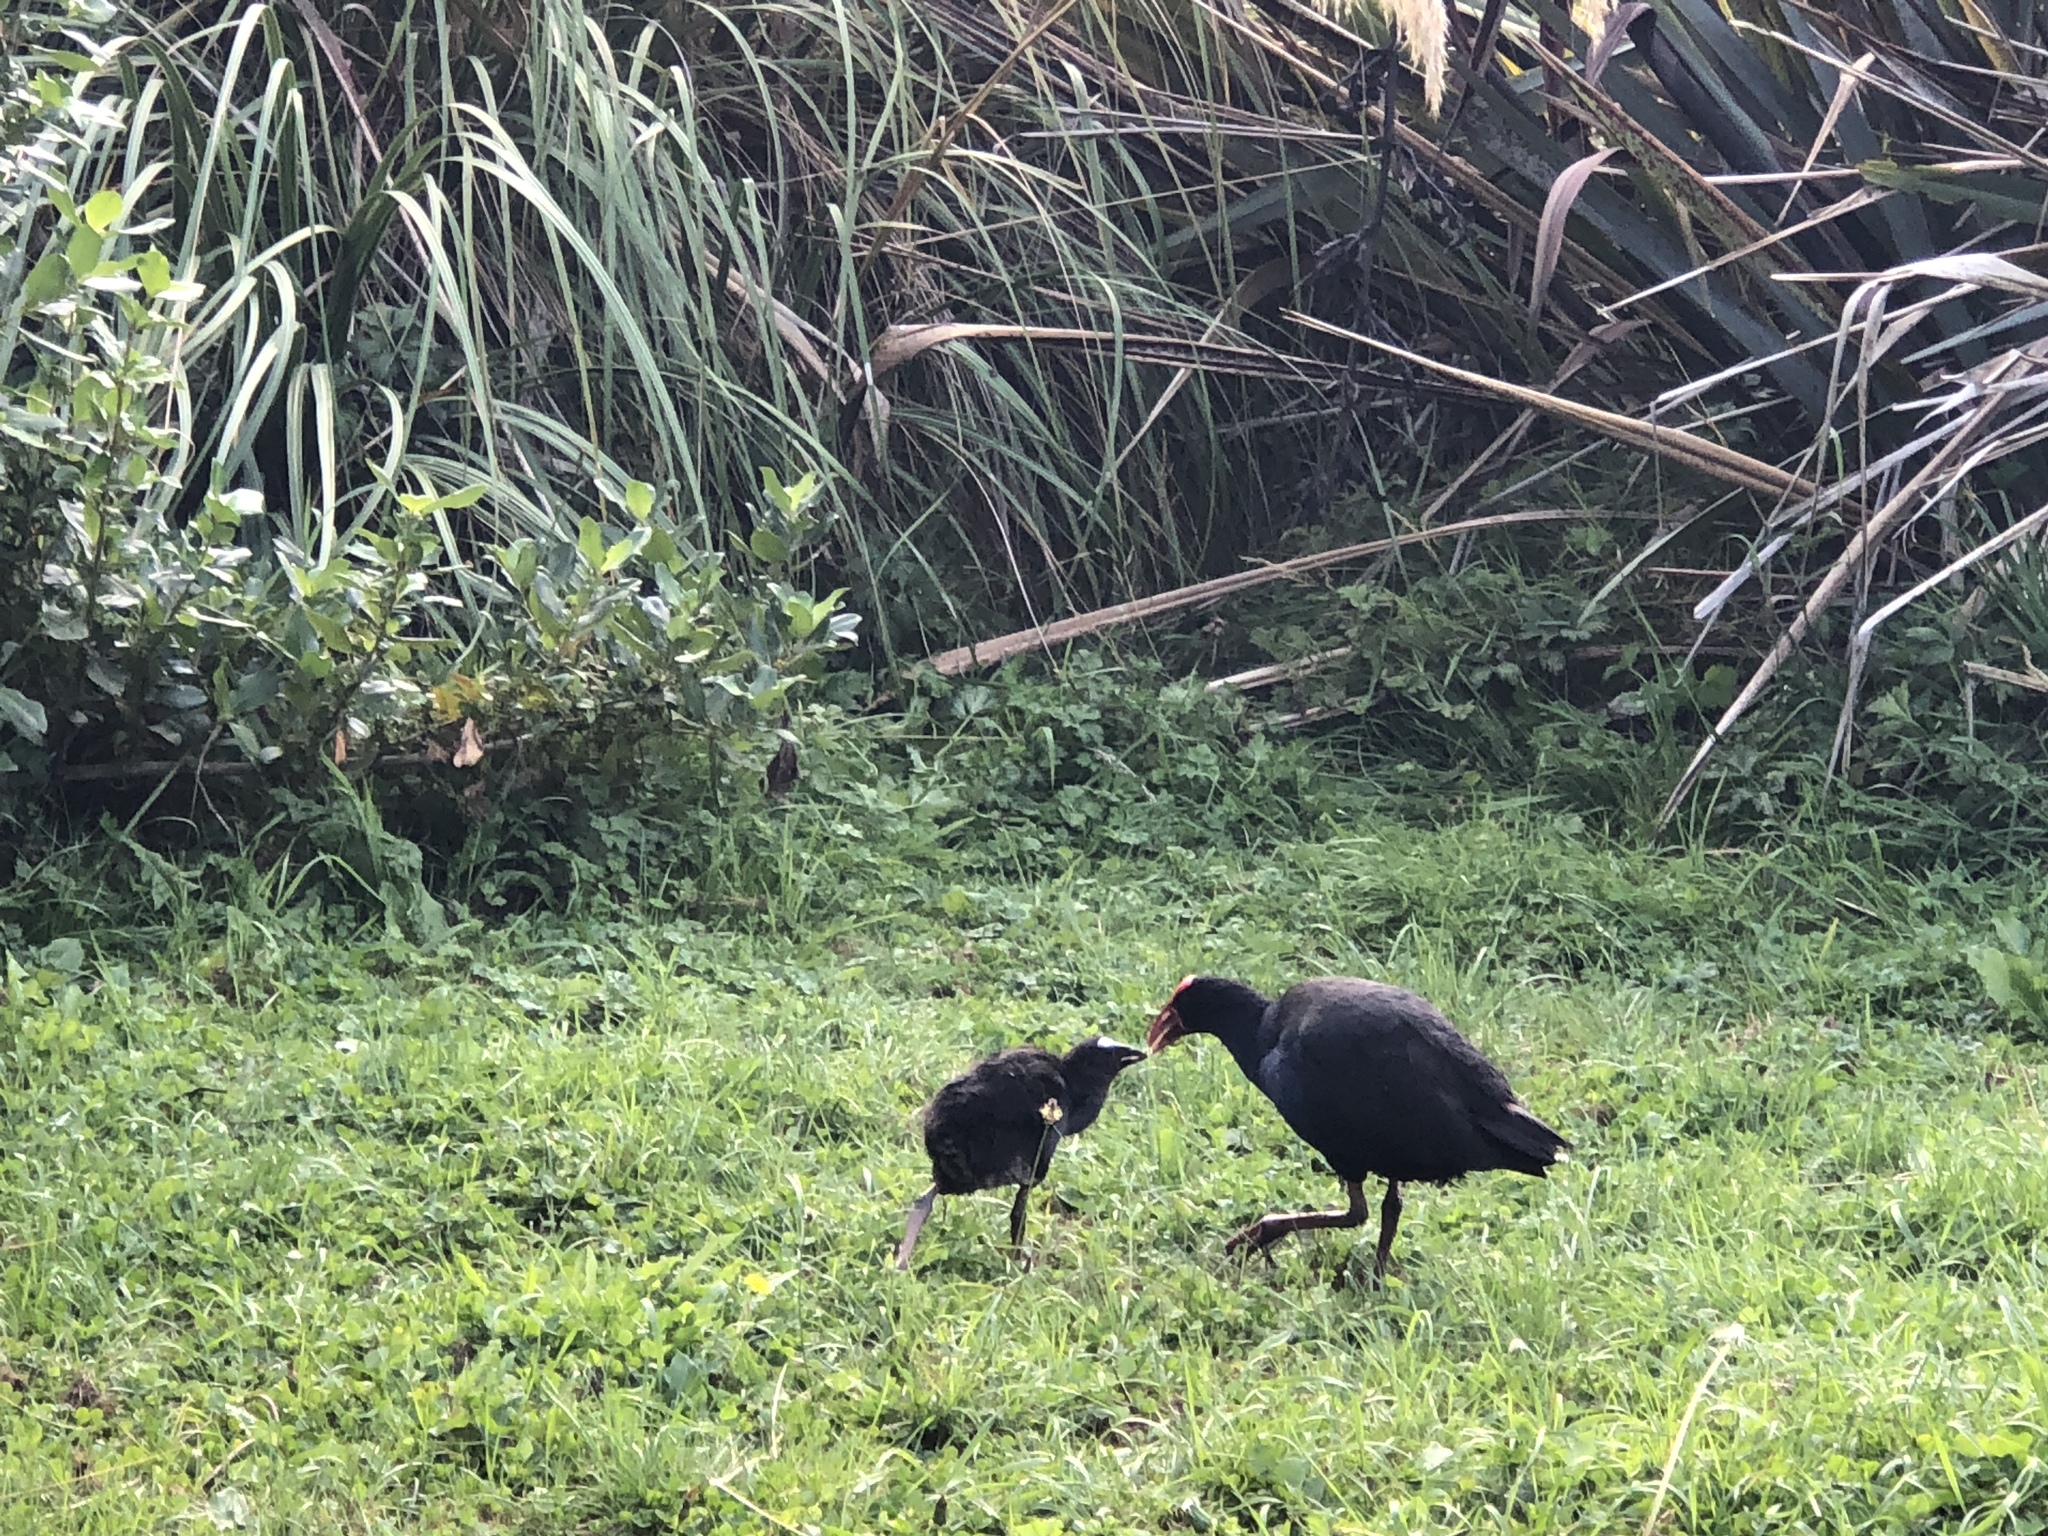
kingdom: Animalia
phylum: Chordata
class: Aves
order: Gruiformes
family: Rallidae
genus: Porphyrio
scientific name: Porphyrio melanotus
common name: Australasian swamphen
